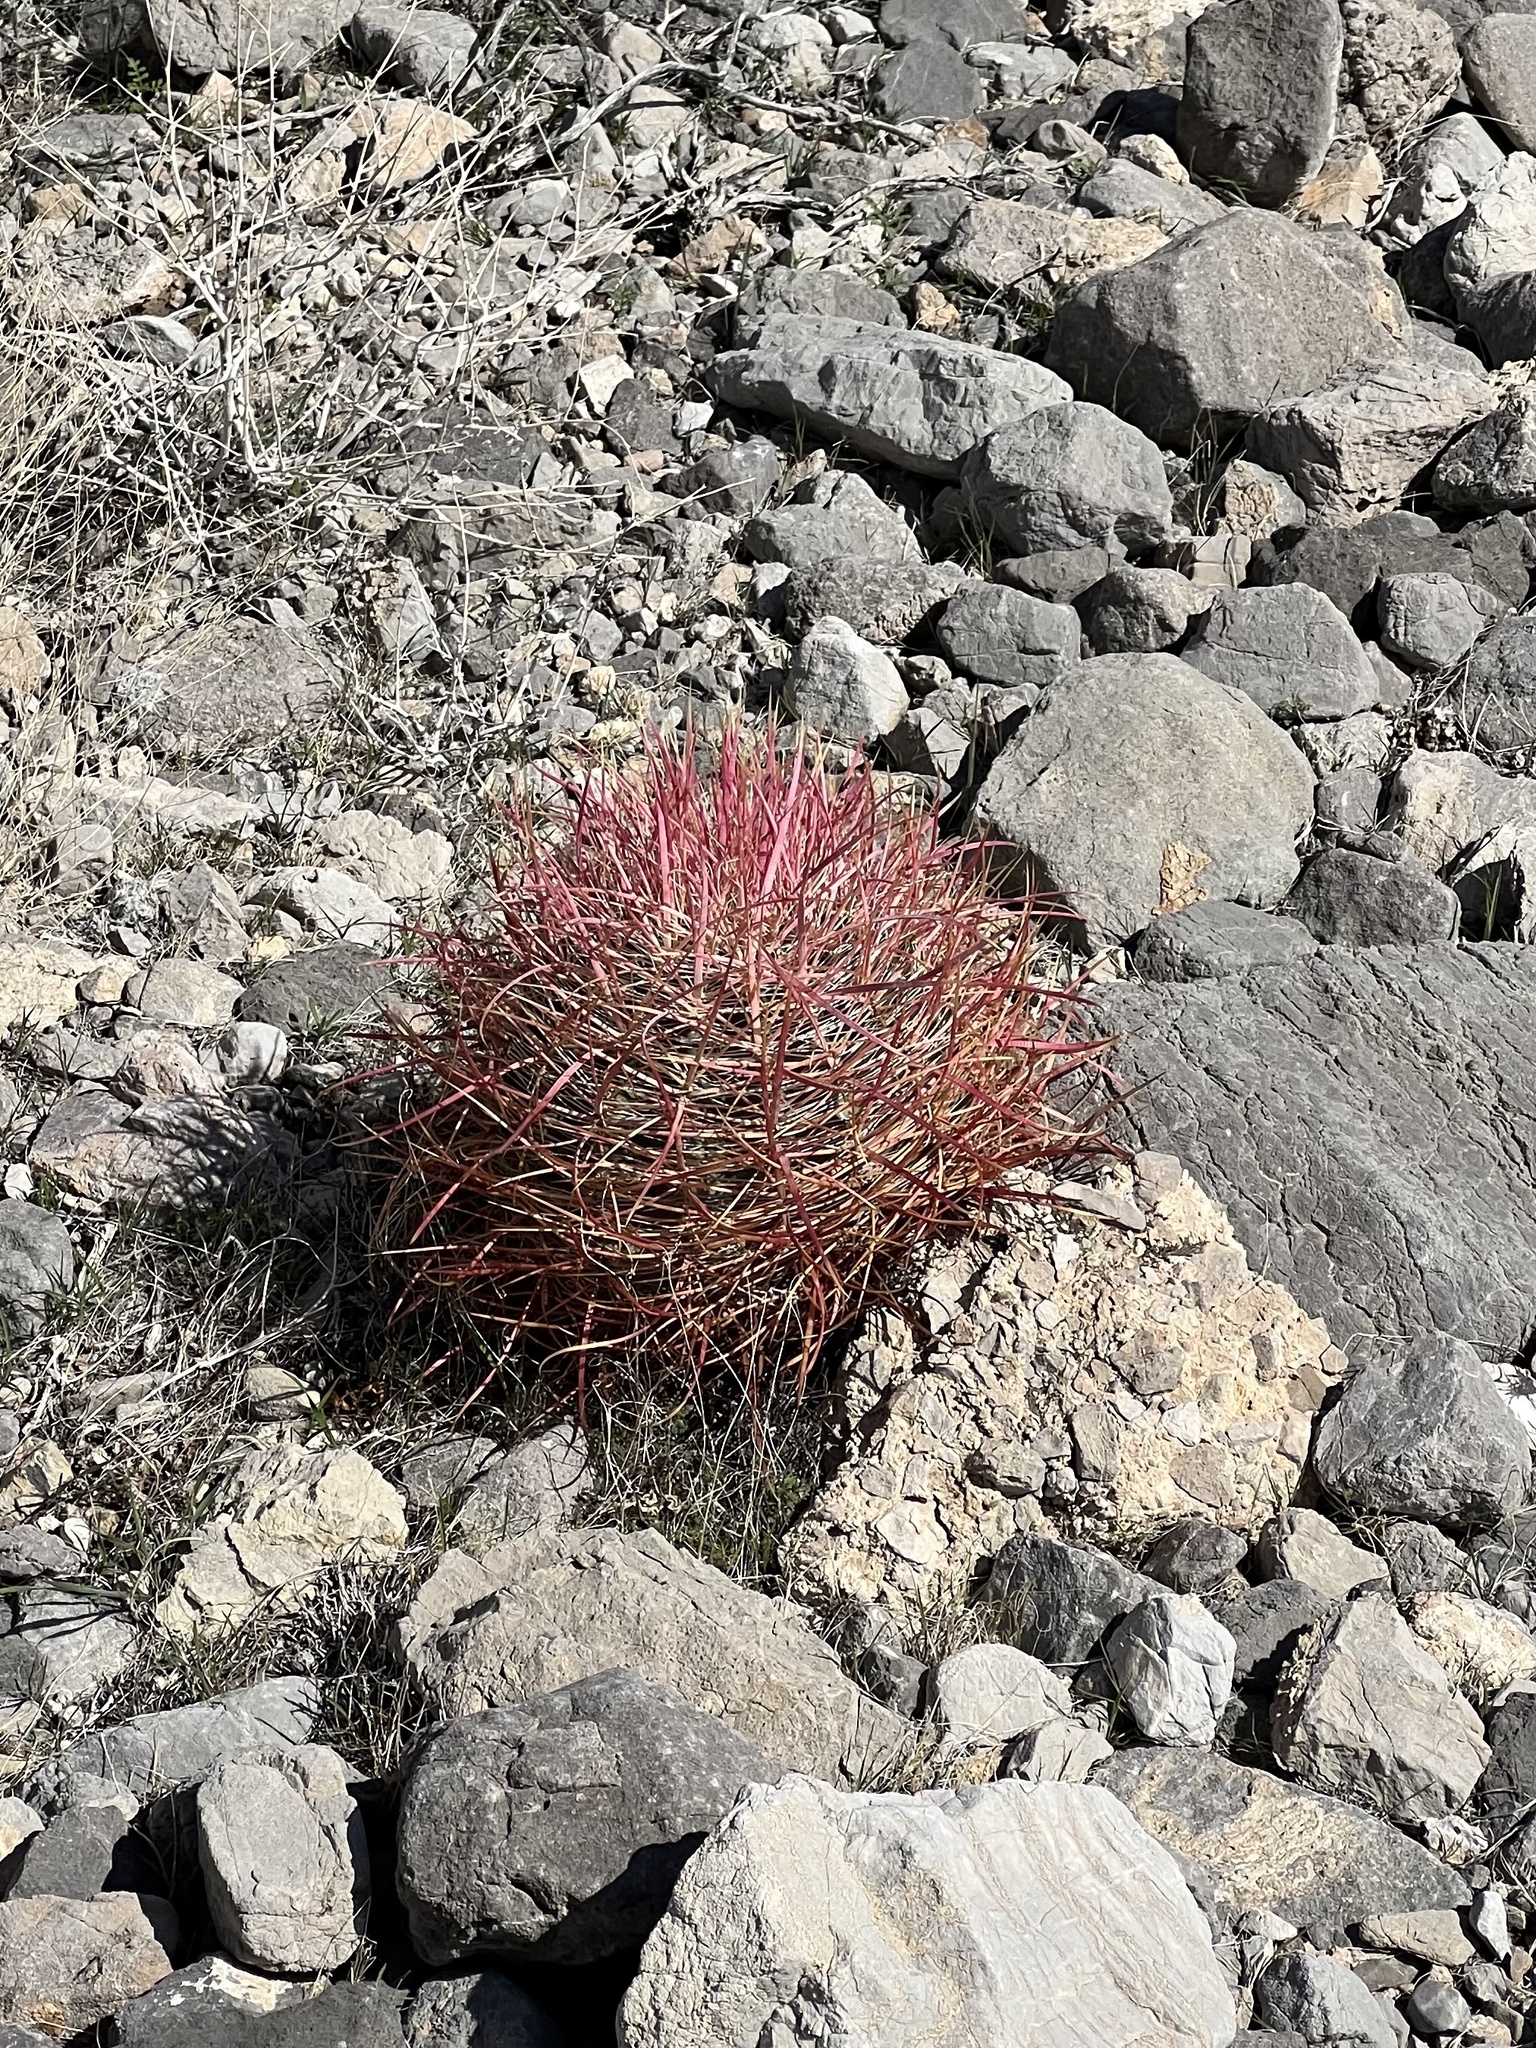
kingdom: Plantae
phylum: Tracheophyta
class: Magnoliopsida
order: Caryophyllales
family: Cactaceae
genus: Ferocactus
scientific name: Ferocactus cylindraceus
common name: California barrel cactus
